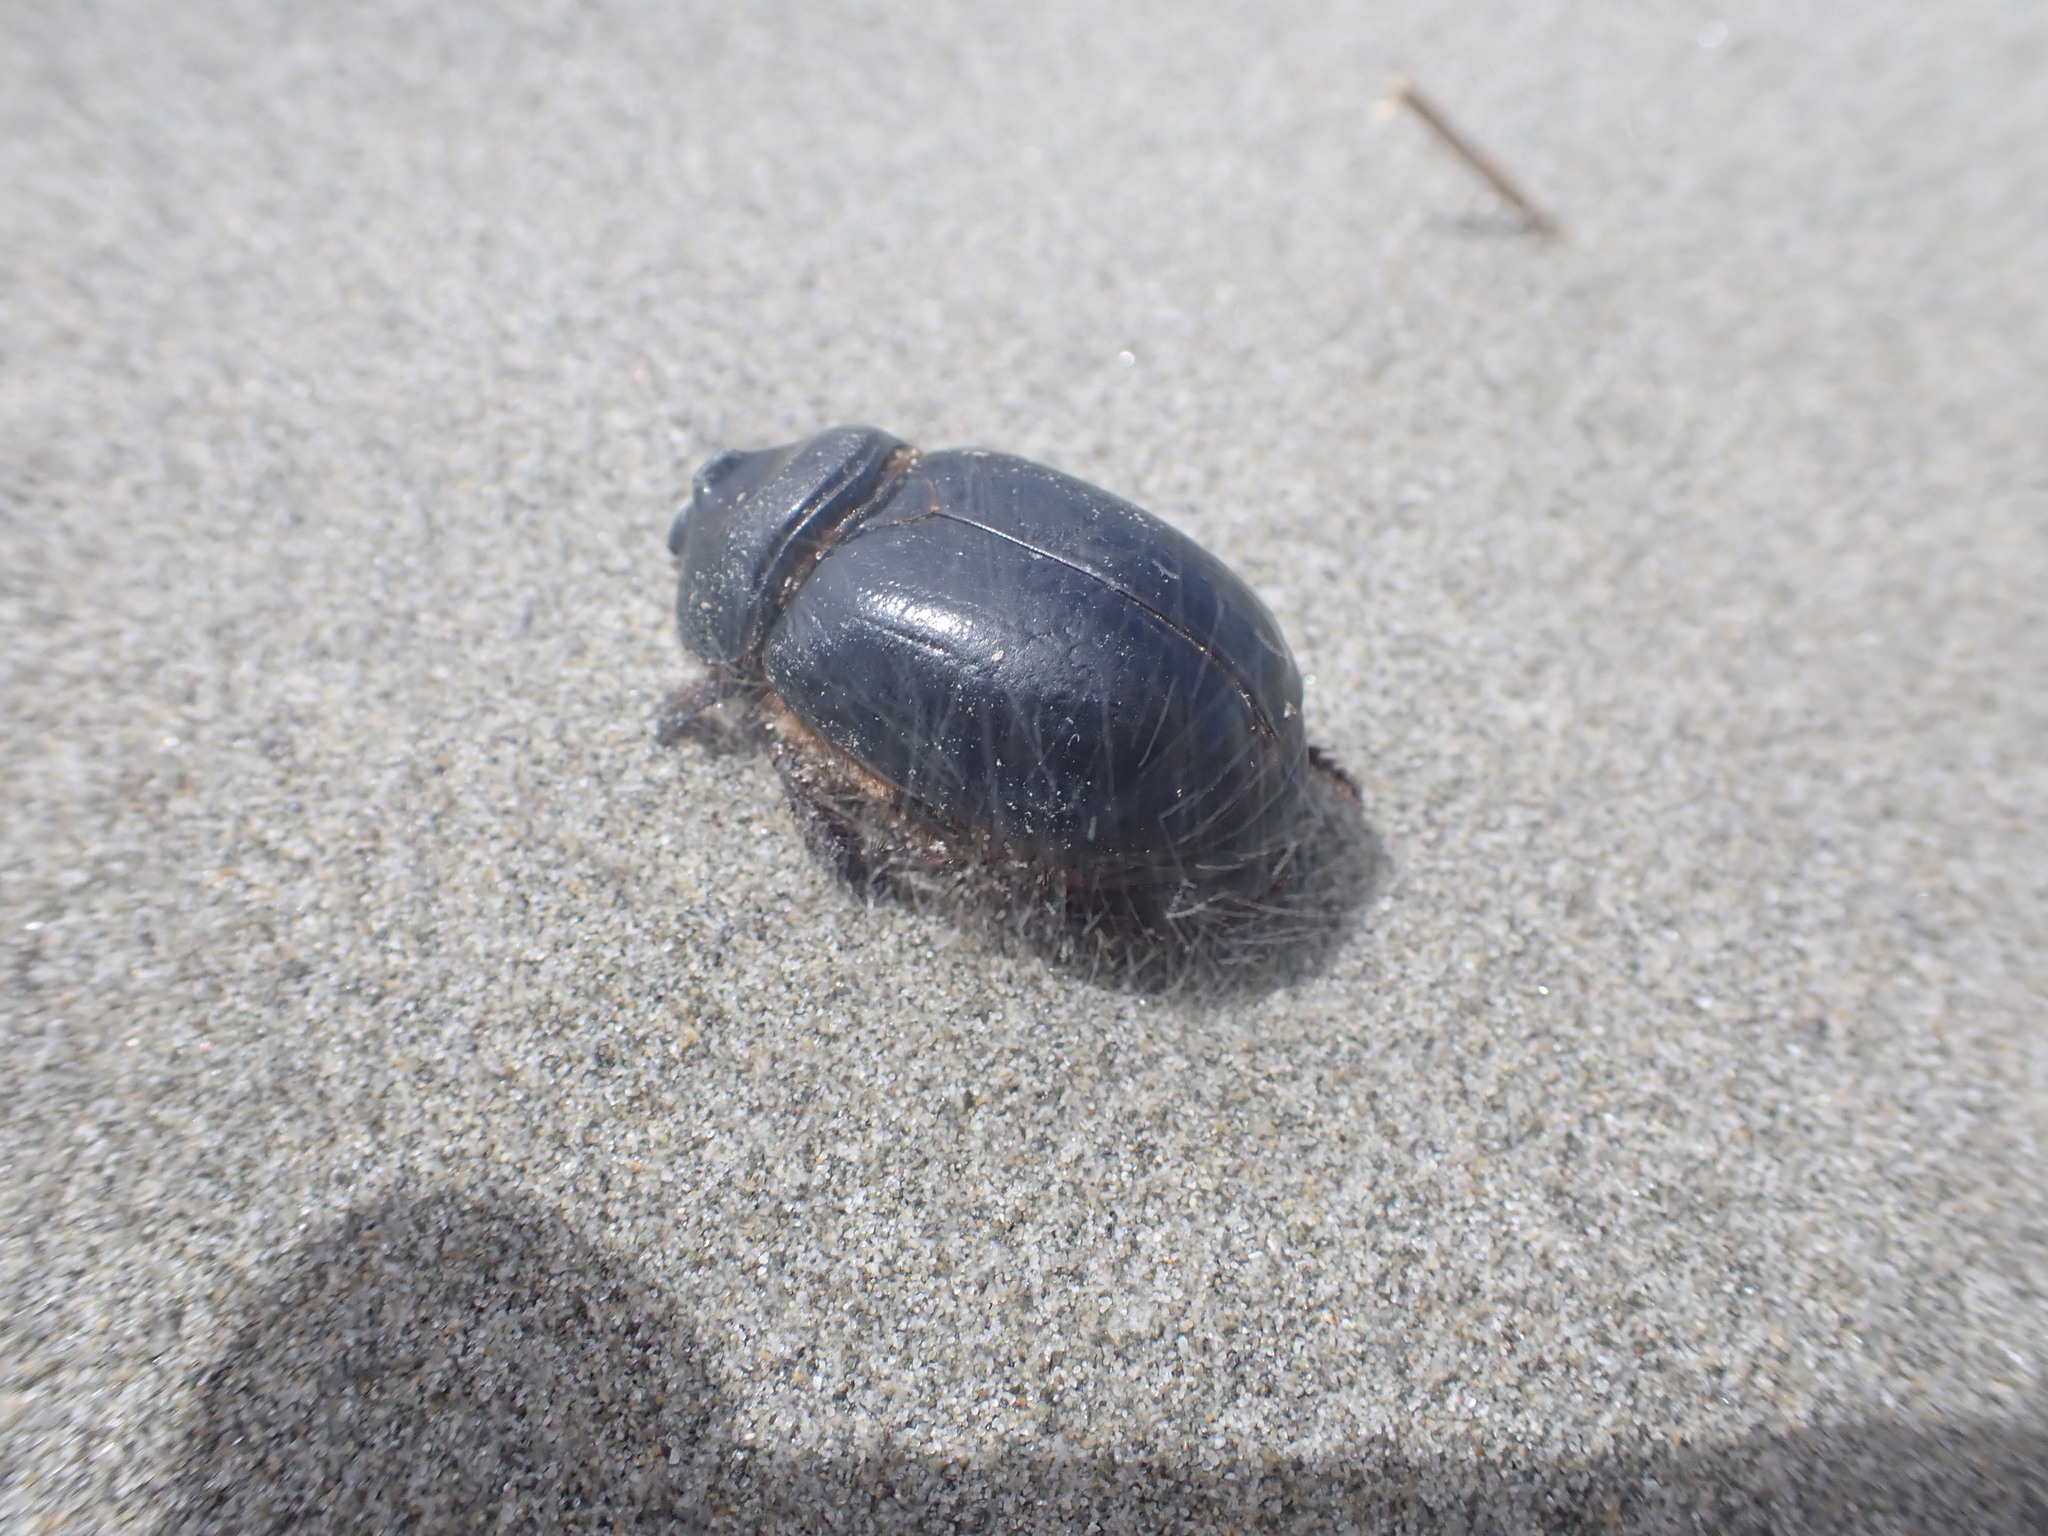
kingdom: Animalia
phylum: Arthropoda
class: Insecta
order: Coleoptera
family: Scarabaeidae
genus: Pericoptus
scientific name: Pericoptus truncatus
